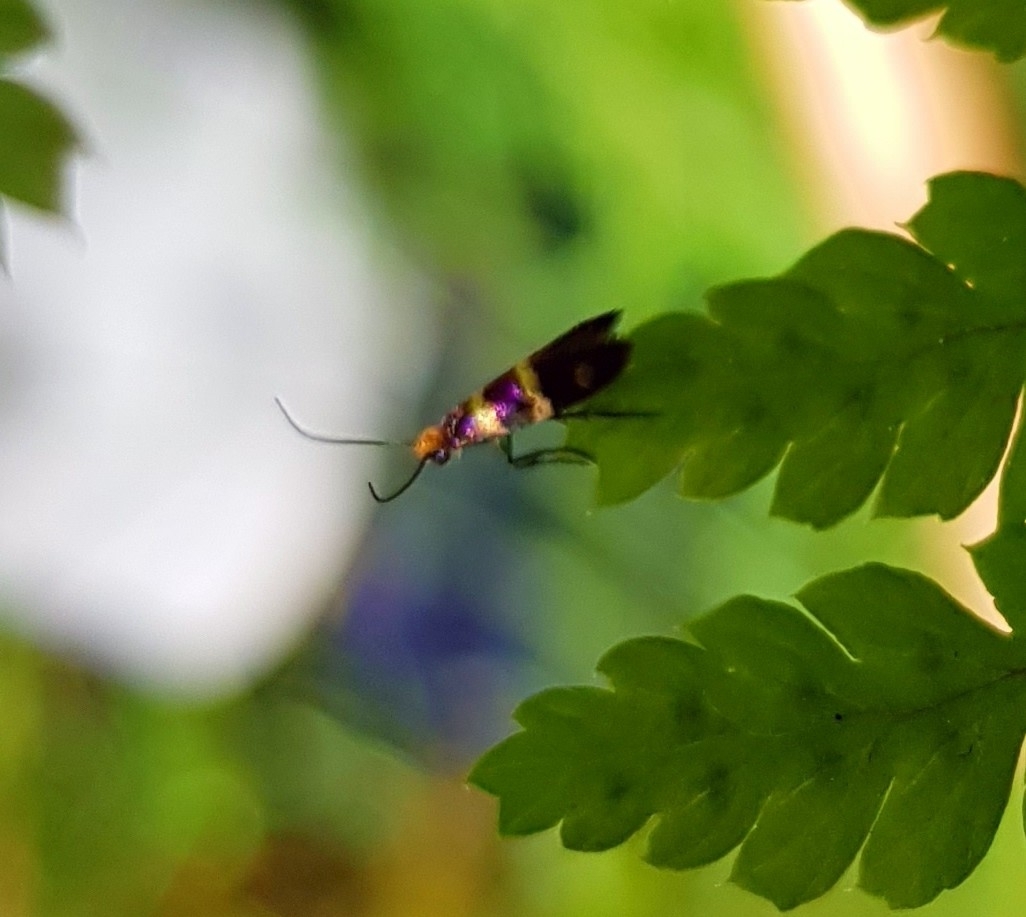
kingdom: Animalia
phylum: Arthropoda
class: Insecta
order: Lepidoptera
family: Micropterigidae
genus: Micropterix
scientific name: Micropterix aureatella
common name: Yellow-barred gold
